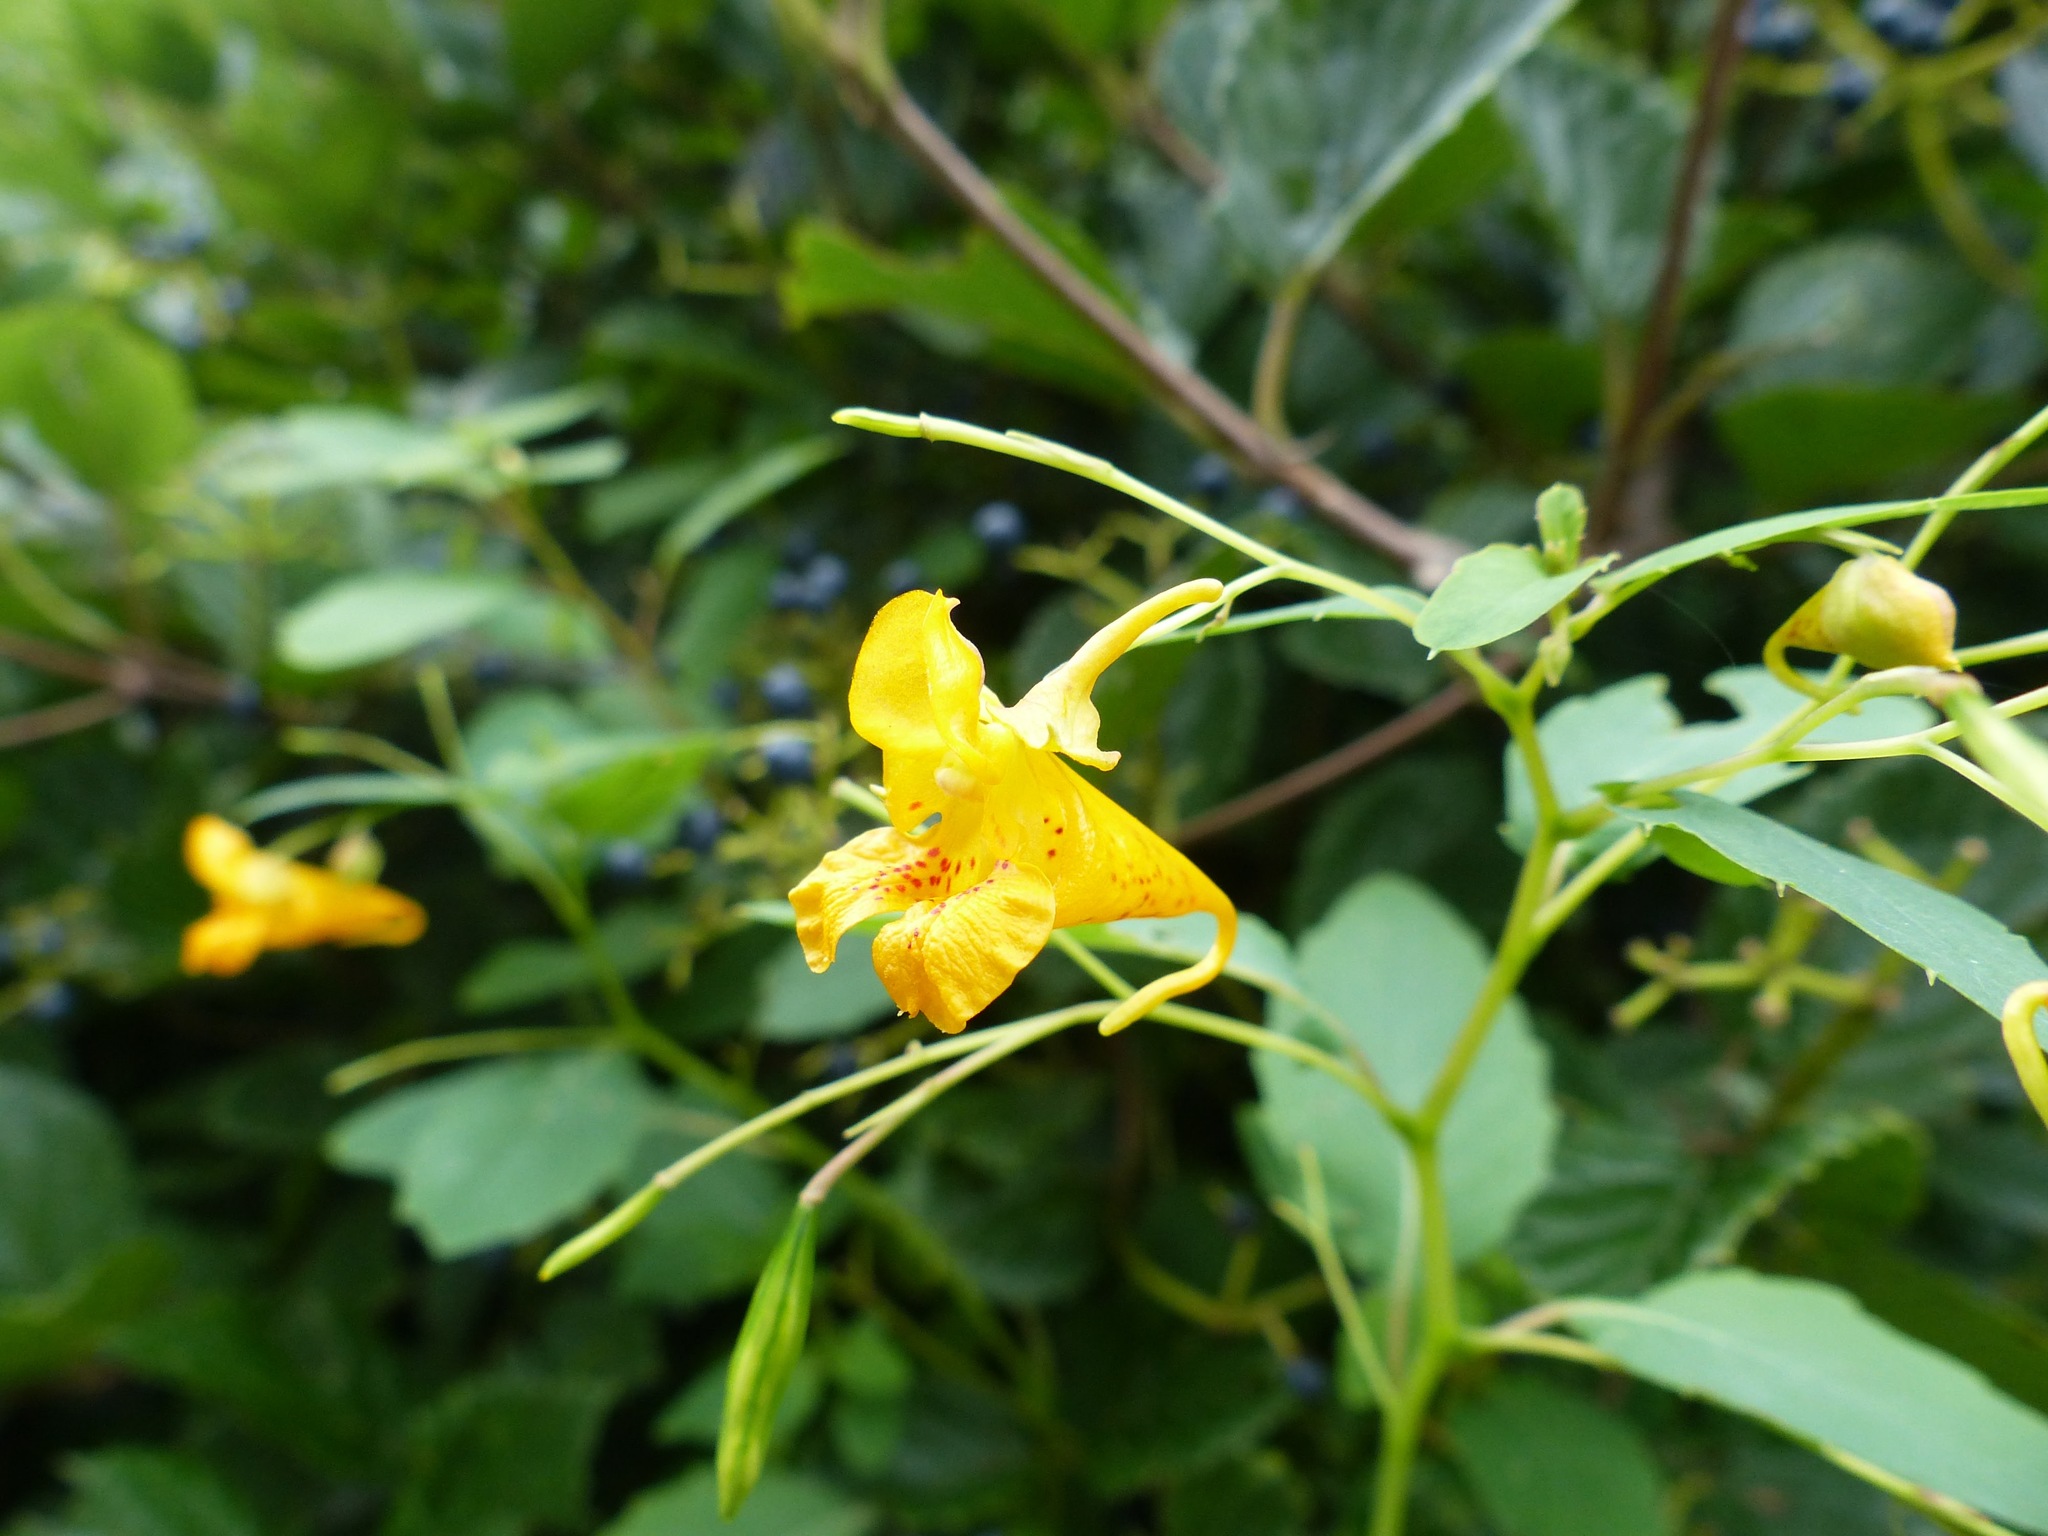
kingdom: Plantae
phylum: Tracheophyta
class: Magnoliopsida
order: Ericales
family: Balsaminaceae
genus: Impatiens
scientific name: Impatiens capensis
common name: Orange balsam
